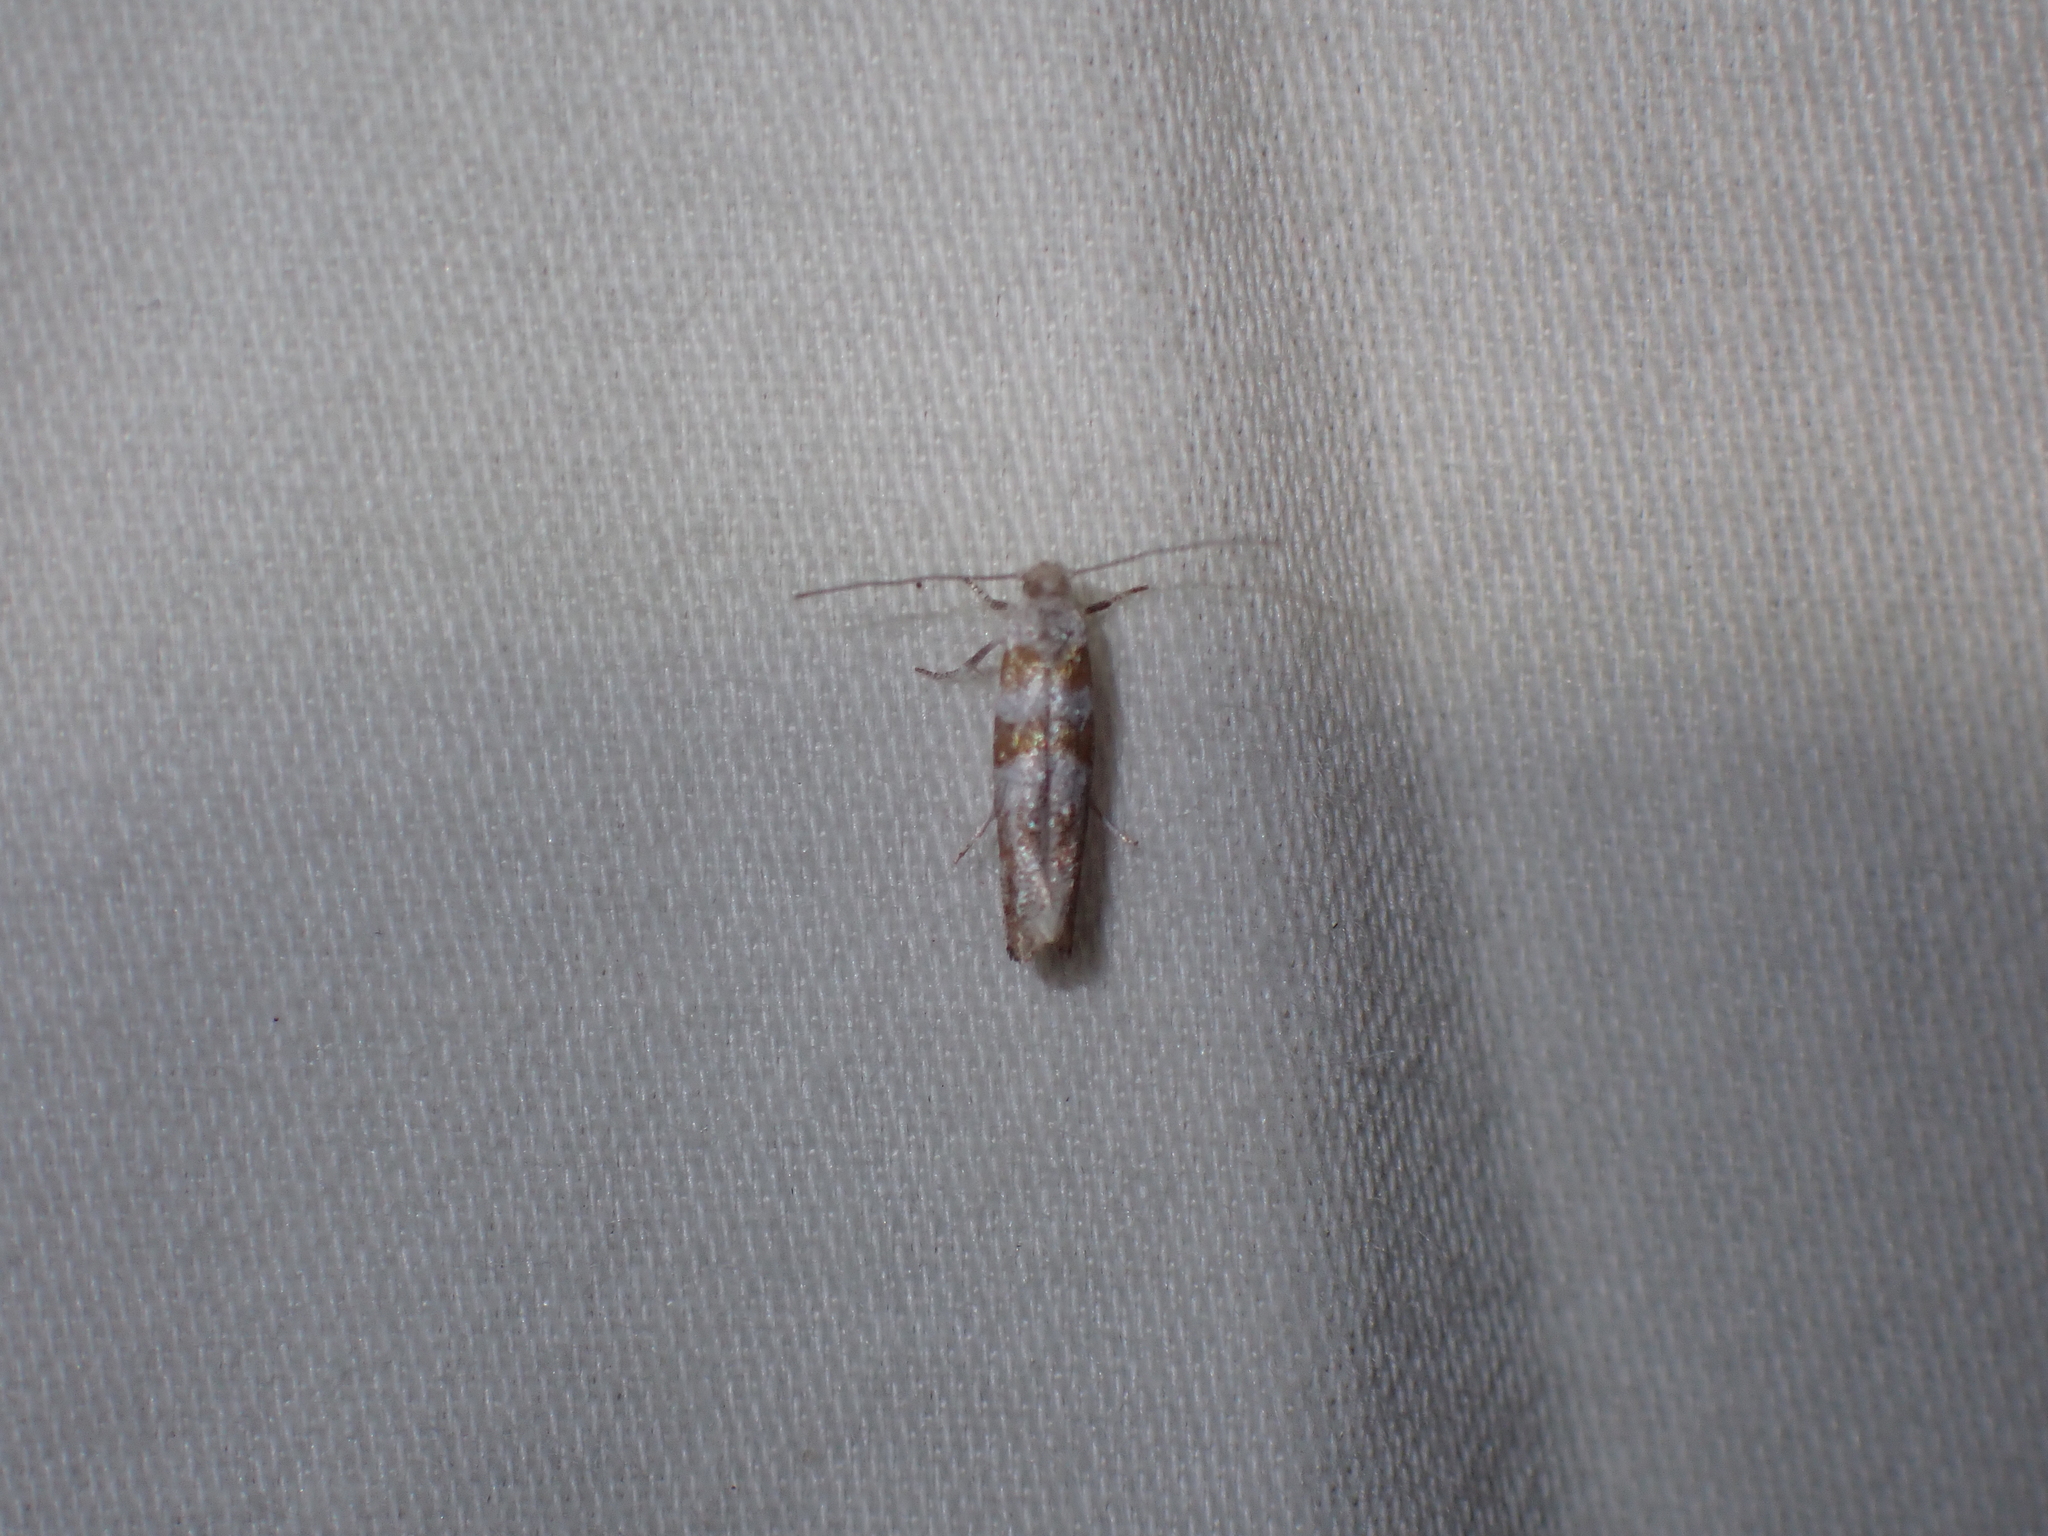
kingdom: Animalia
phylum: Arthropoda
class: Insecta
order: Lepidoptera
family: Yponomeutidae
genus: Cedestis
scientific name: Cedestis gysseleniella
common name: Gold pine ermel
